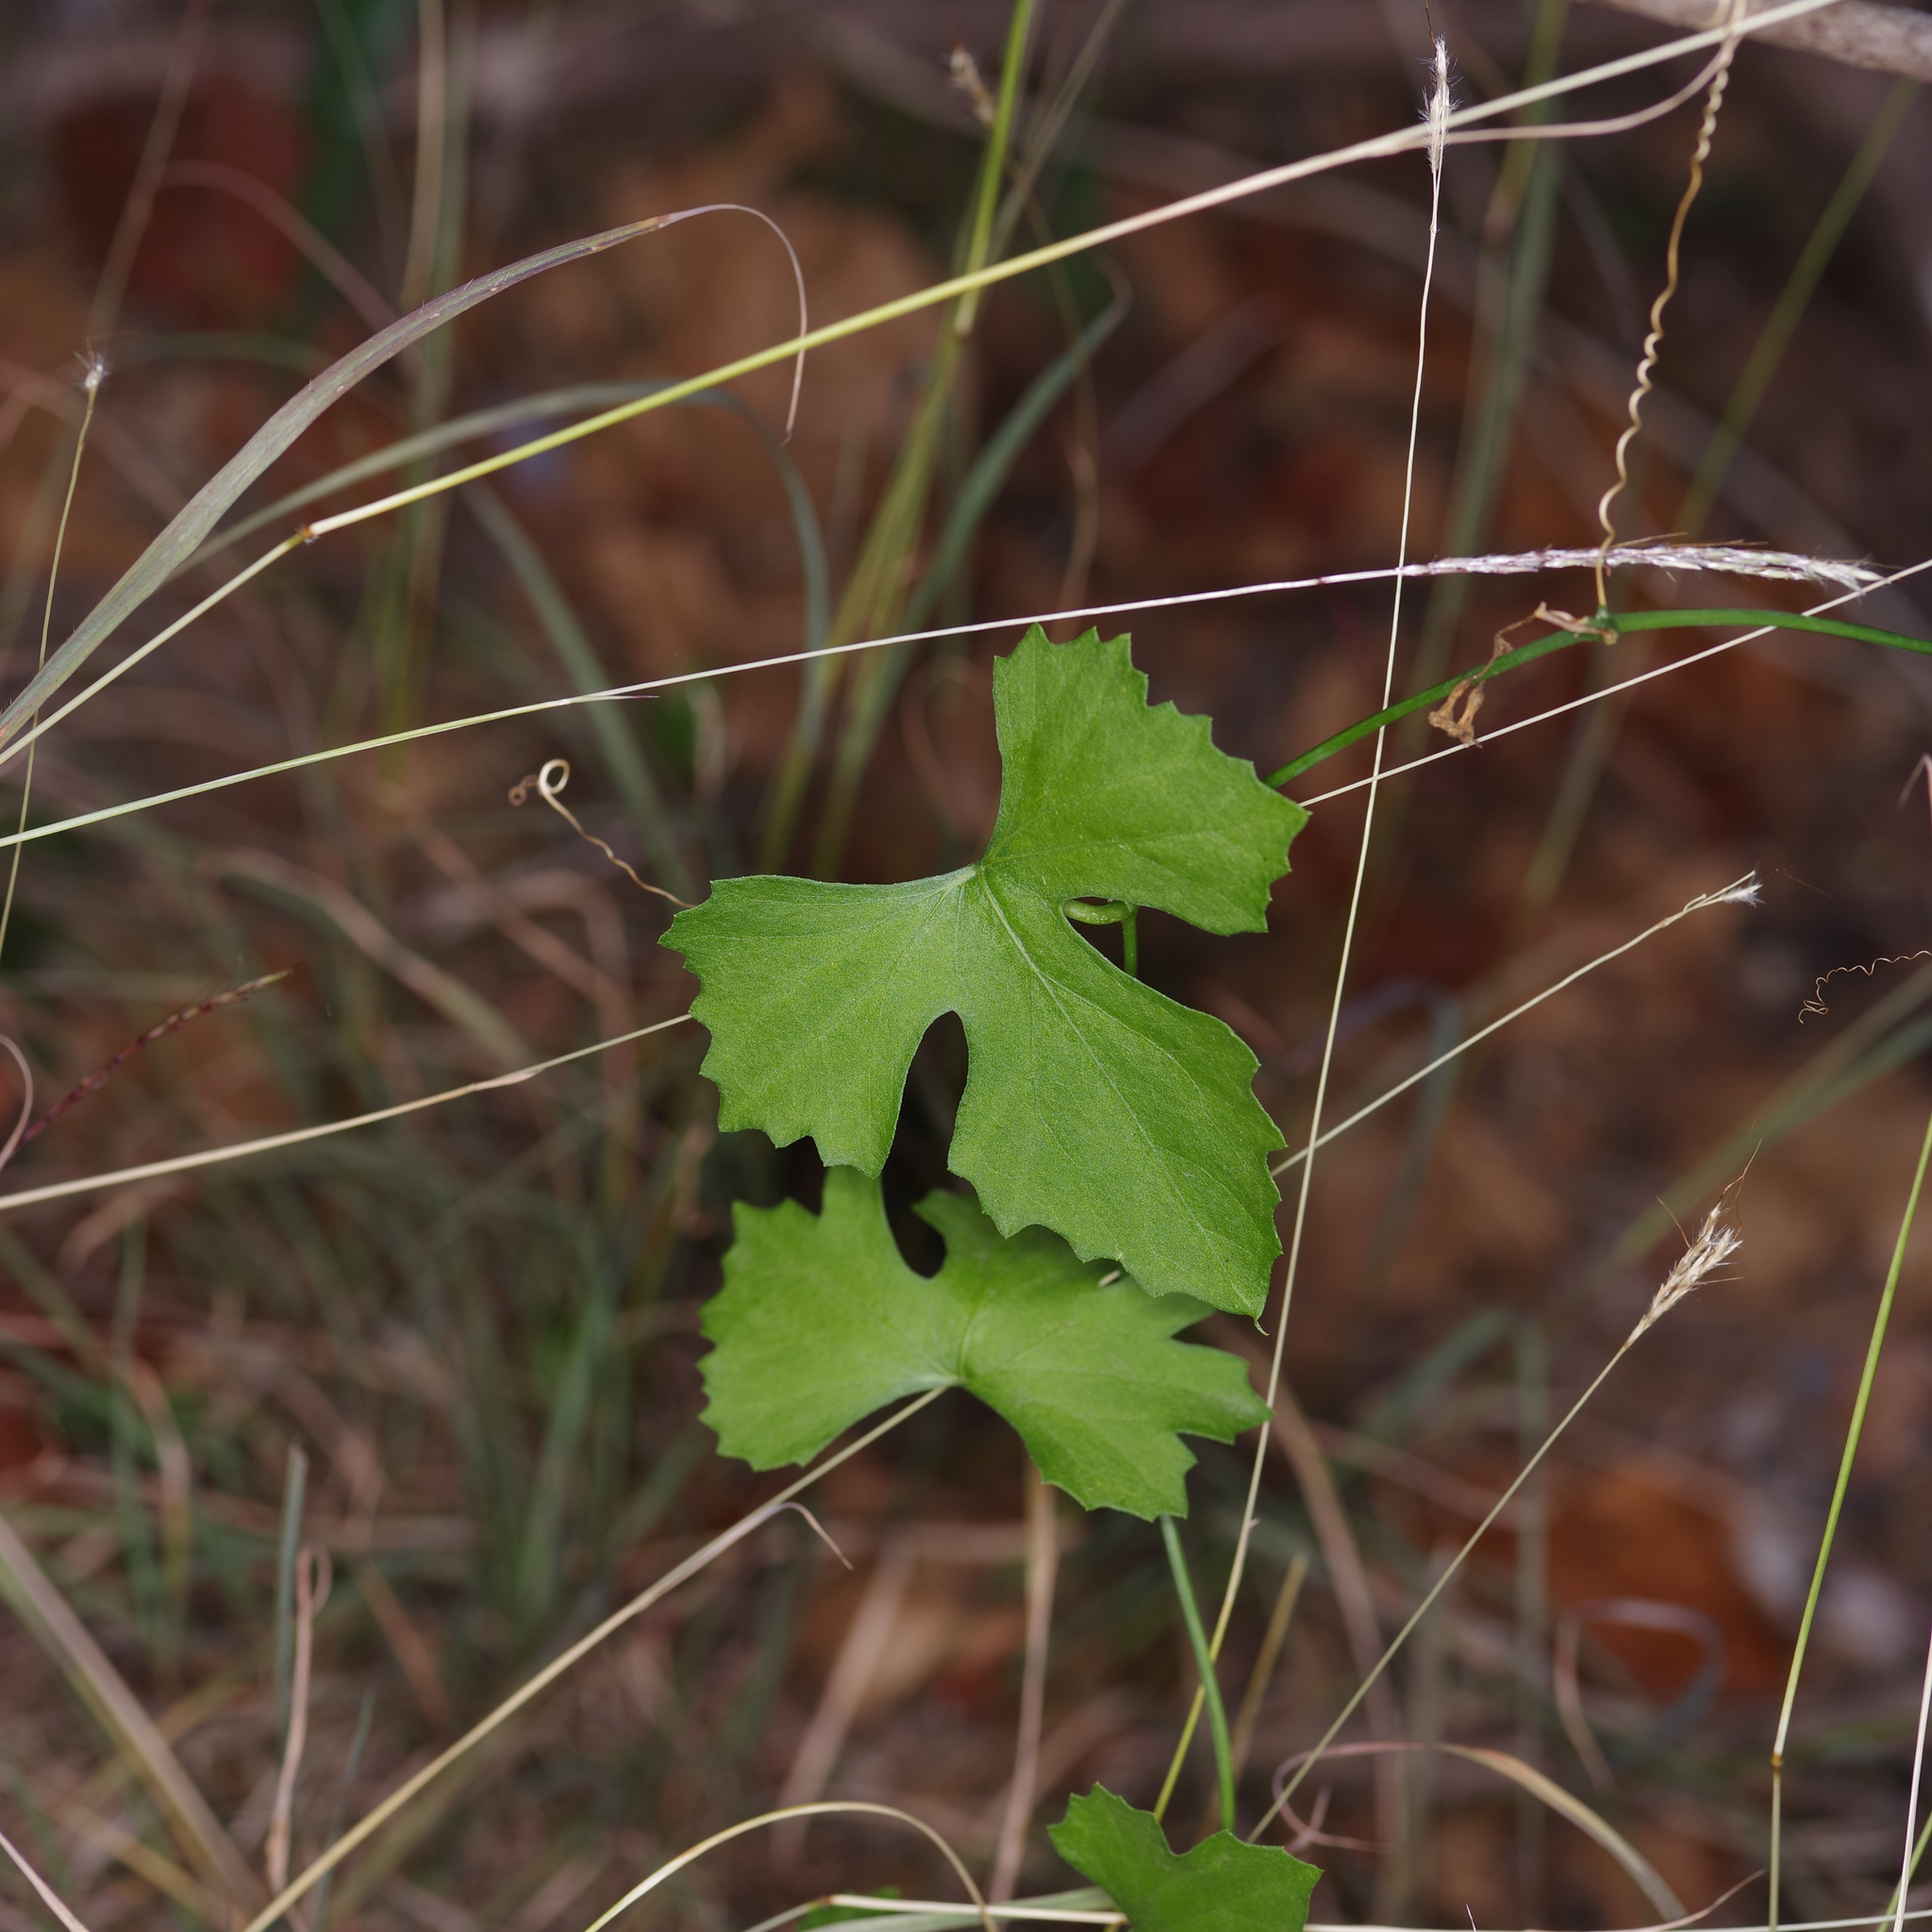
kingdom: Plantae
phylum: Tracheophyta
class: Magnoliopsida
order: Cucurbitales
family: Cucurbitaceae
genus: Ibervillea
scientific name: Ibervillea lindheimeri
